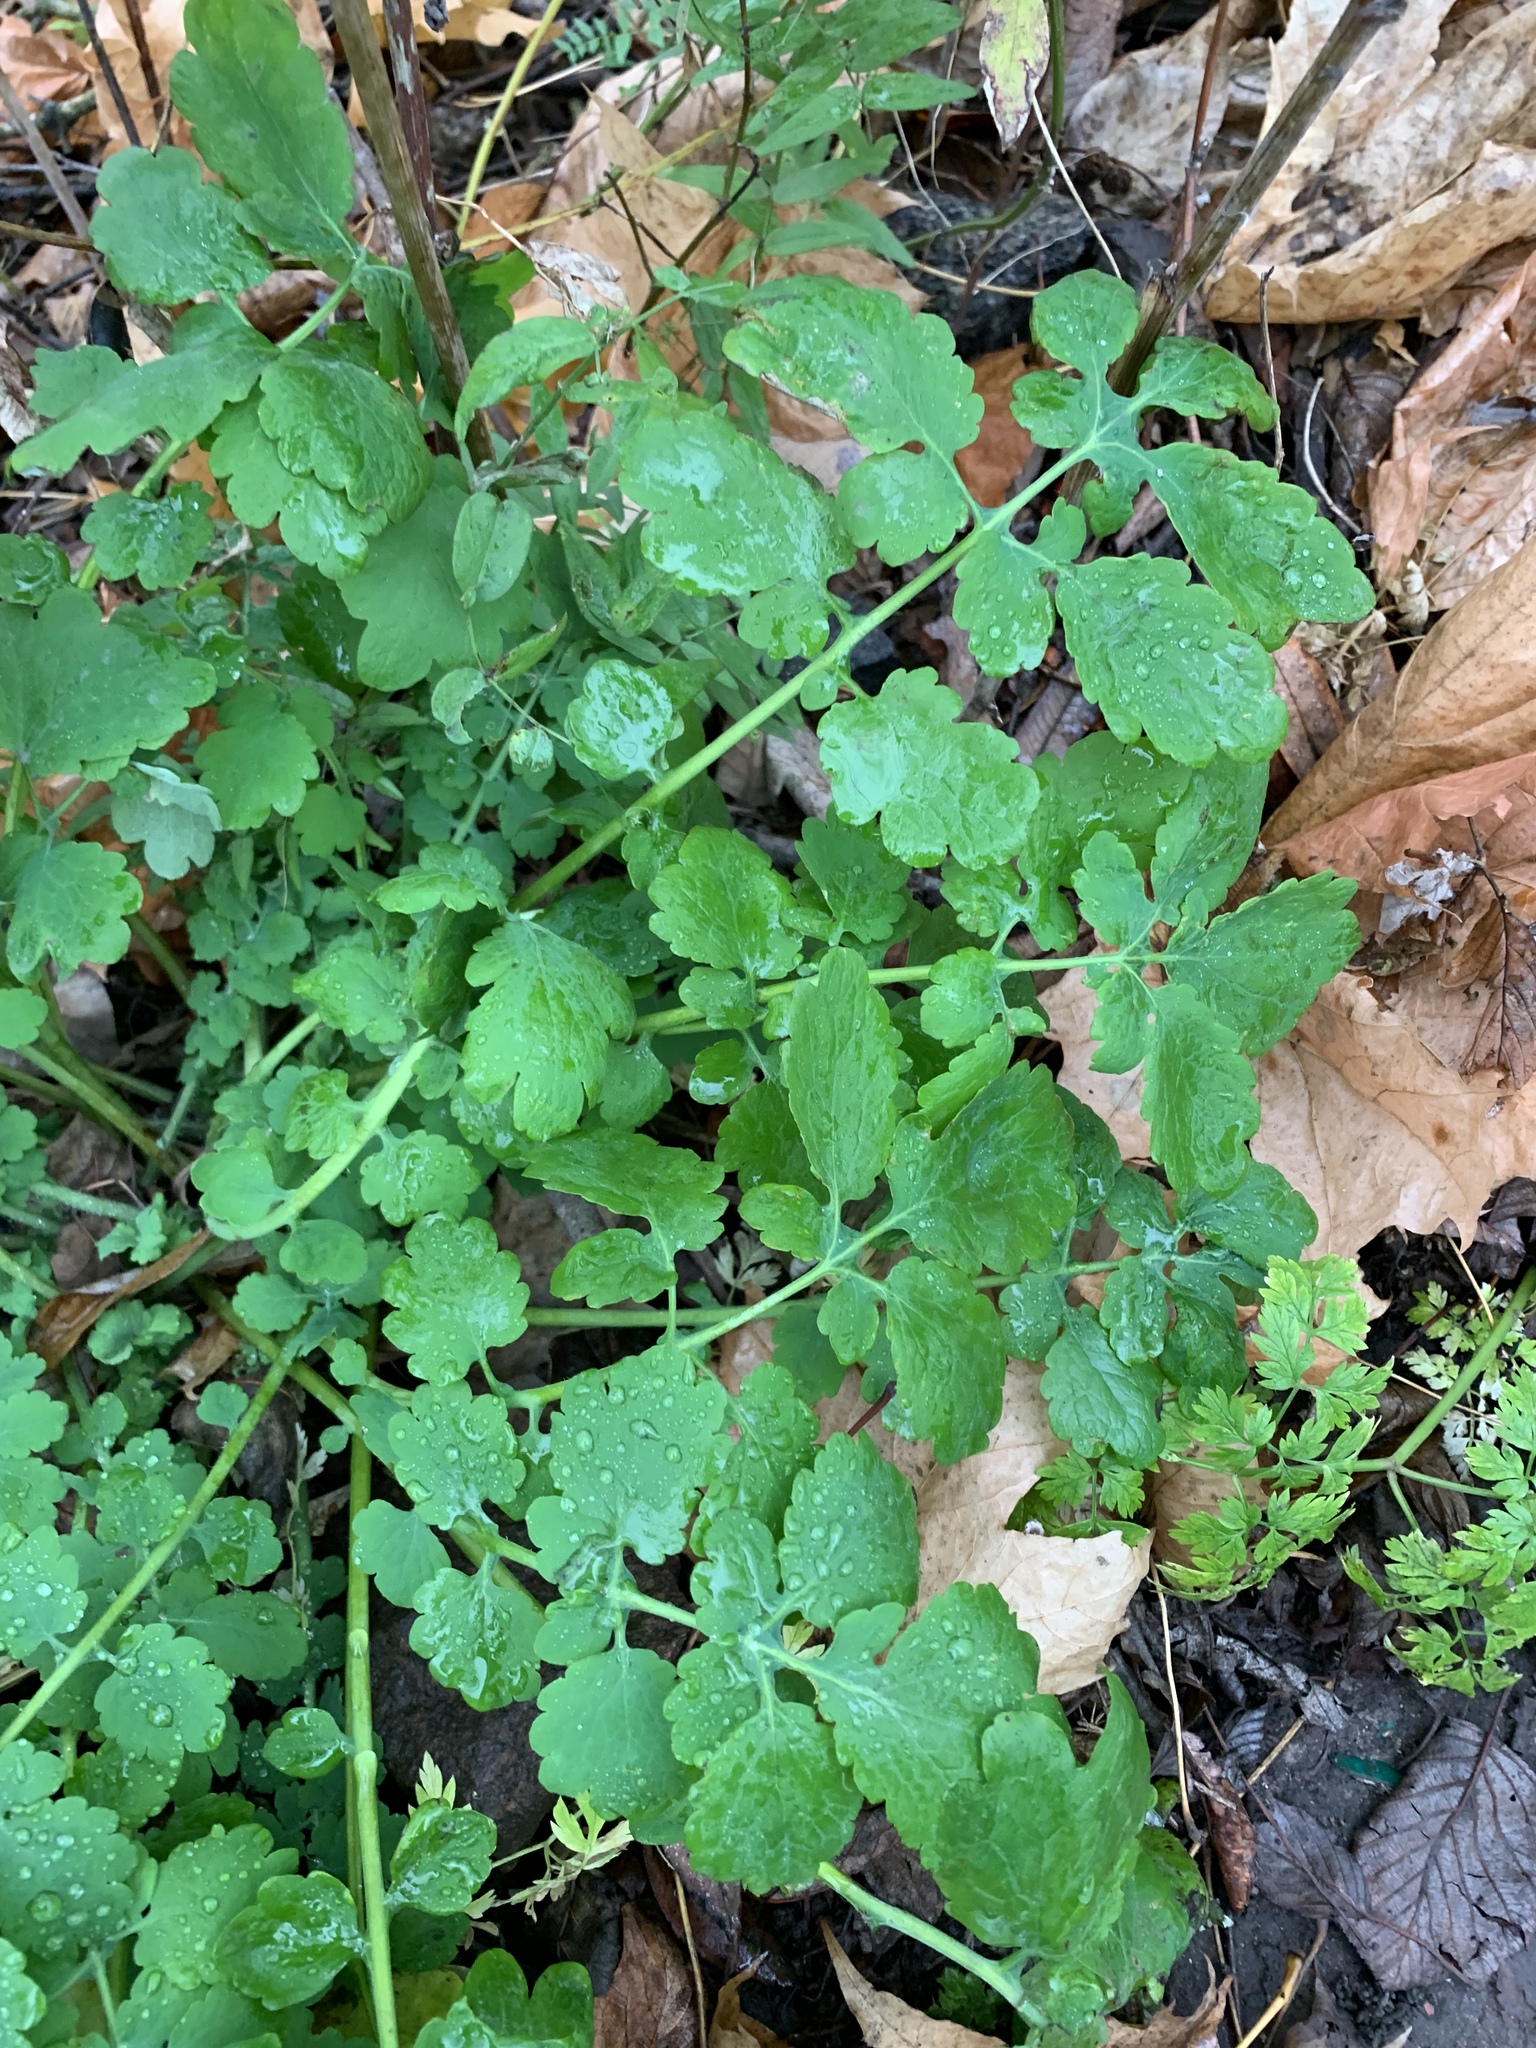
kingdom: Plantae
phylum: Tracheophyta
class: Magnoliopsida
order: Ranunculales
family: Papaveraceae
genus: Chelidonium
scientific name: Chelidonium majus
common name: Greater celandine
